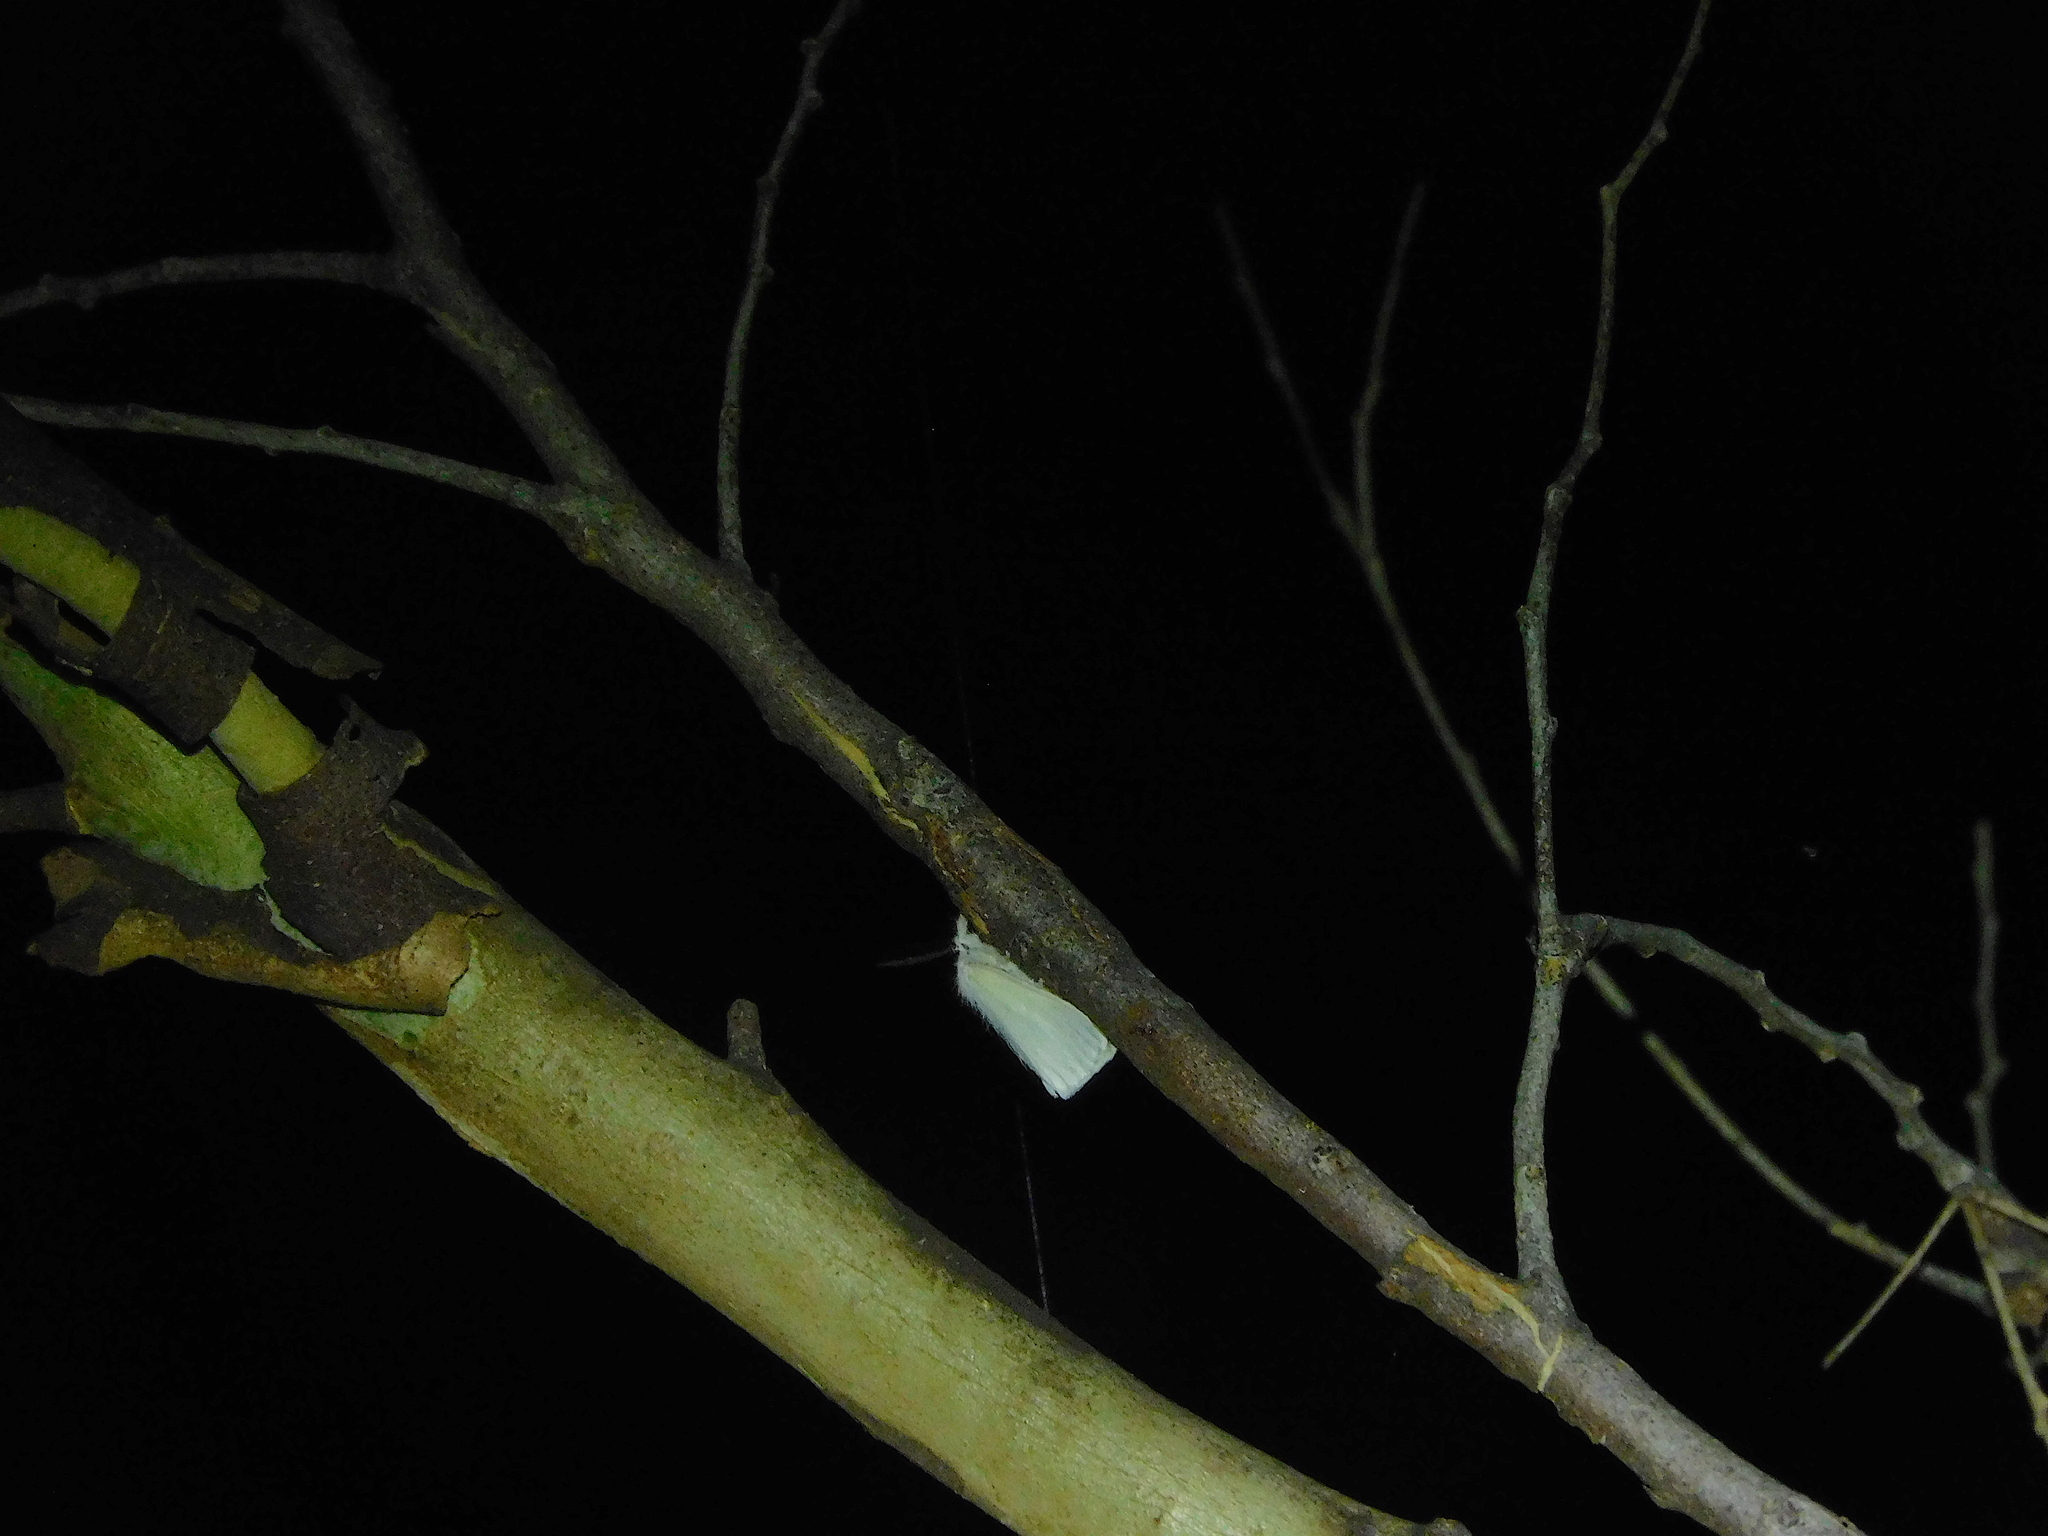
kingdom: Animalia
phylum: Arthropoda
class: Insecta
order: Lepidoptera
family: Erebidae
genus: Acyphas
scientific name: Acyphas semiochrea
